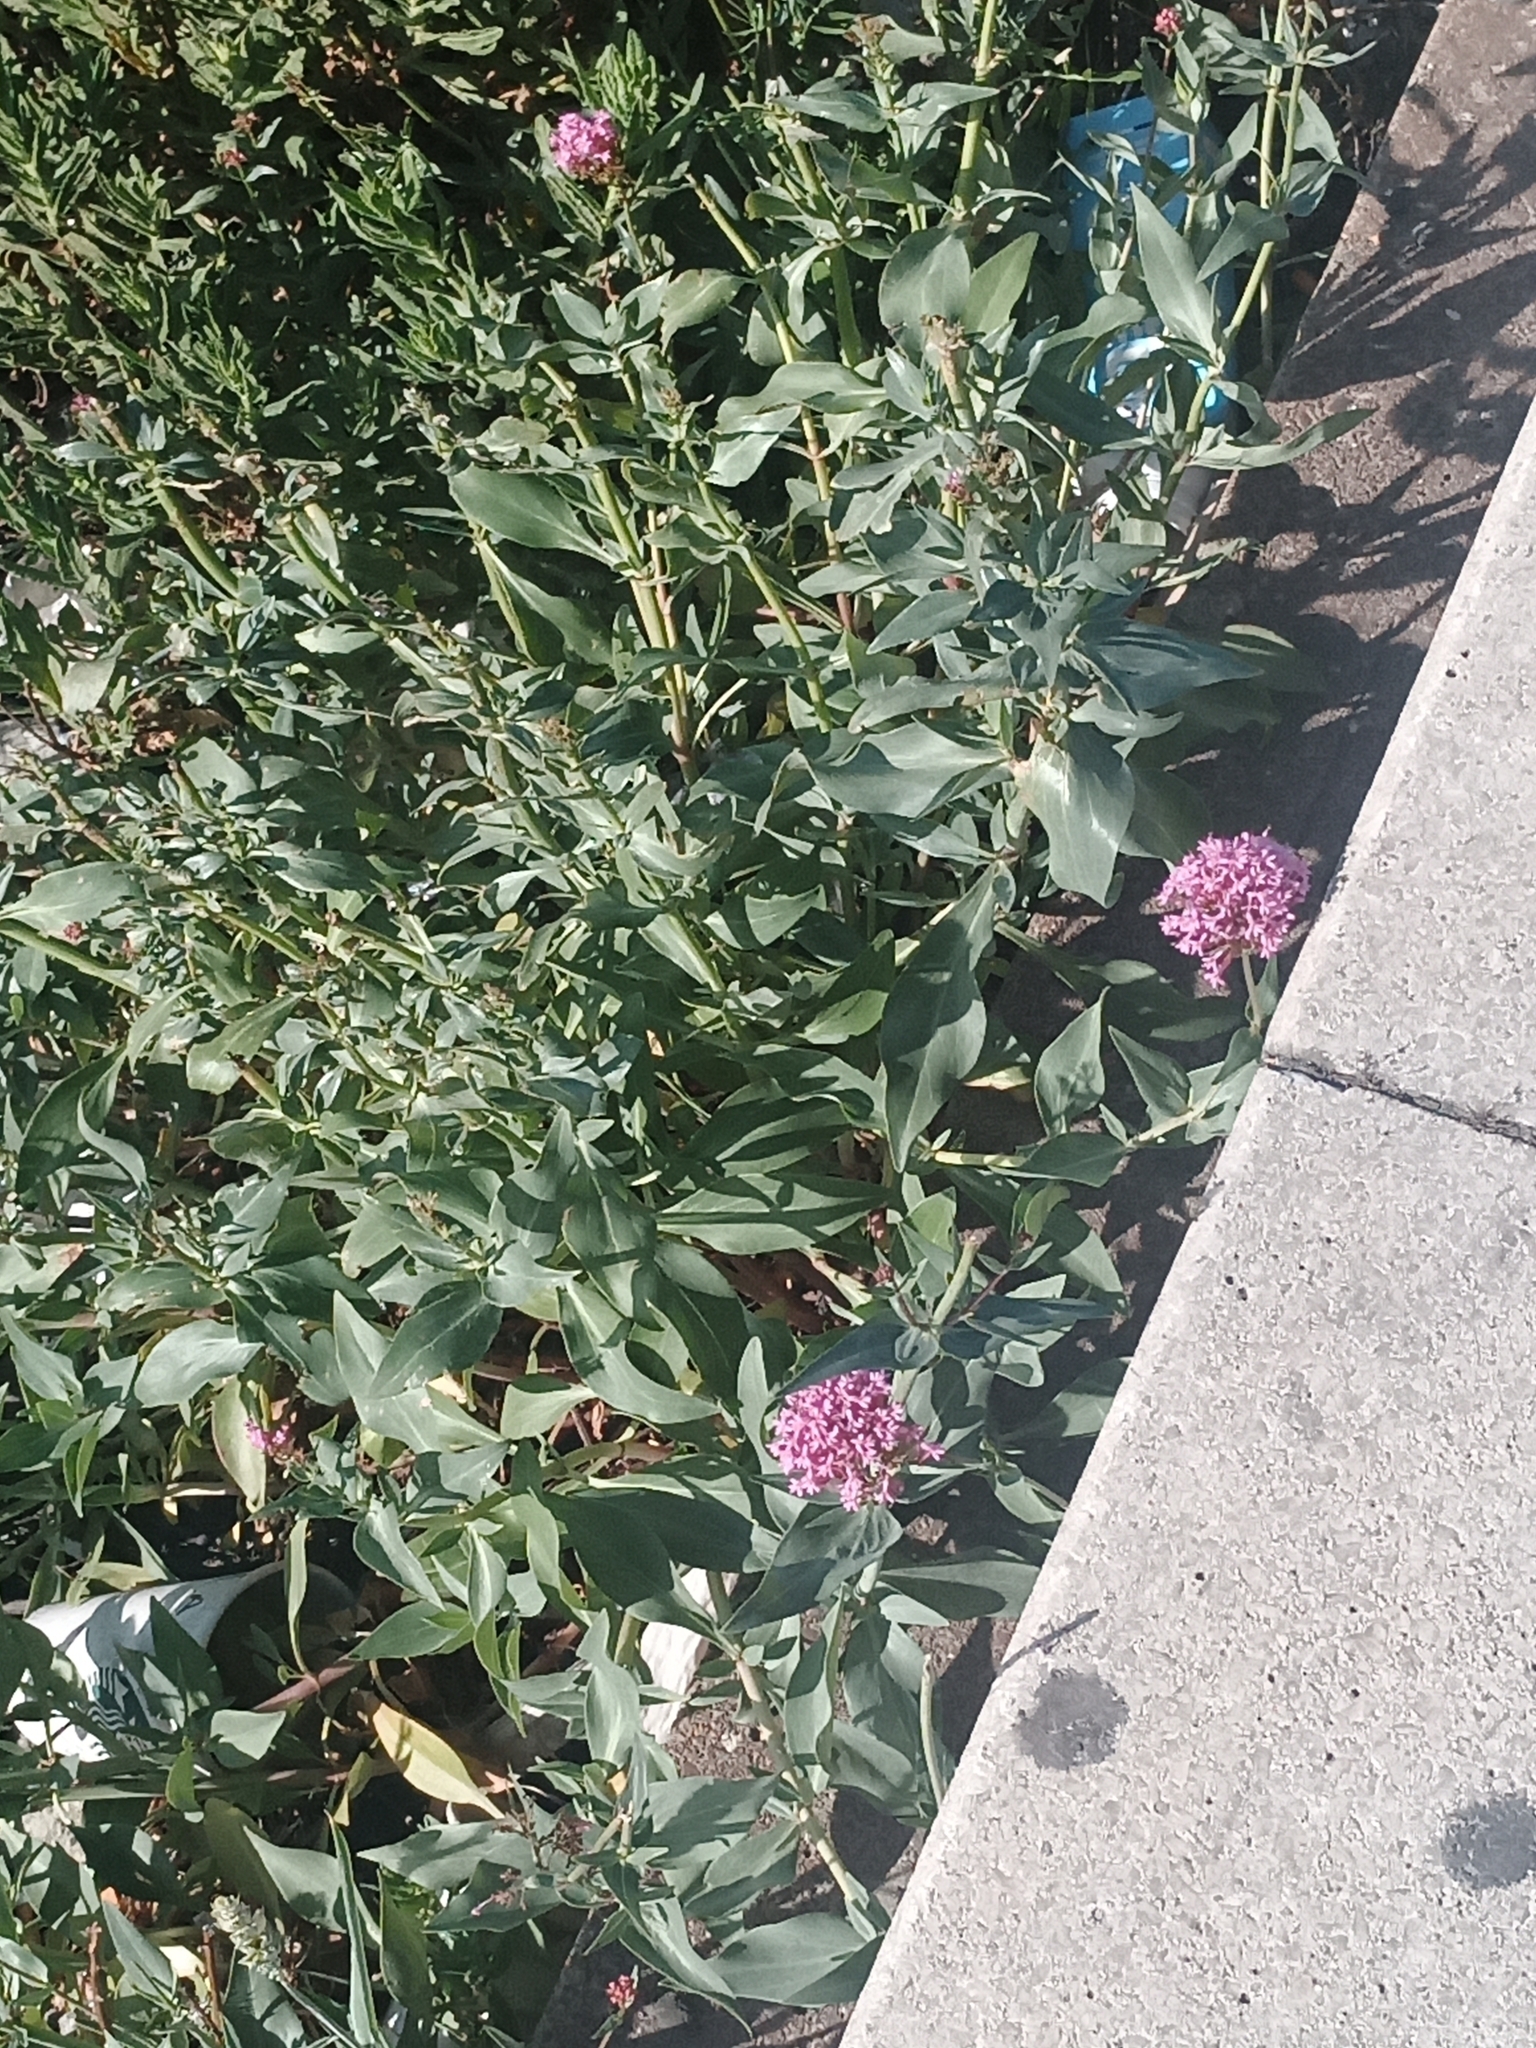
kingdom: Plantae
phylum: Tracheophyta
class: Magnoliopsida
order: Dipsacales
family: Caprifoliaceae
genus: Centranthus
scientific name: Centranthus ruber
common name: Red valerian
